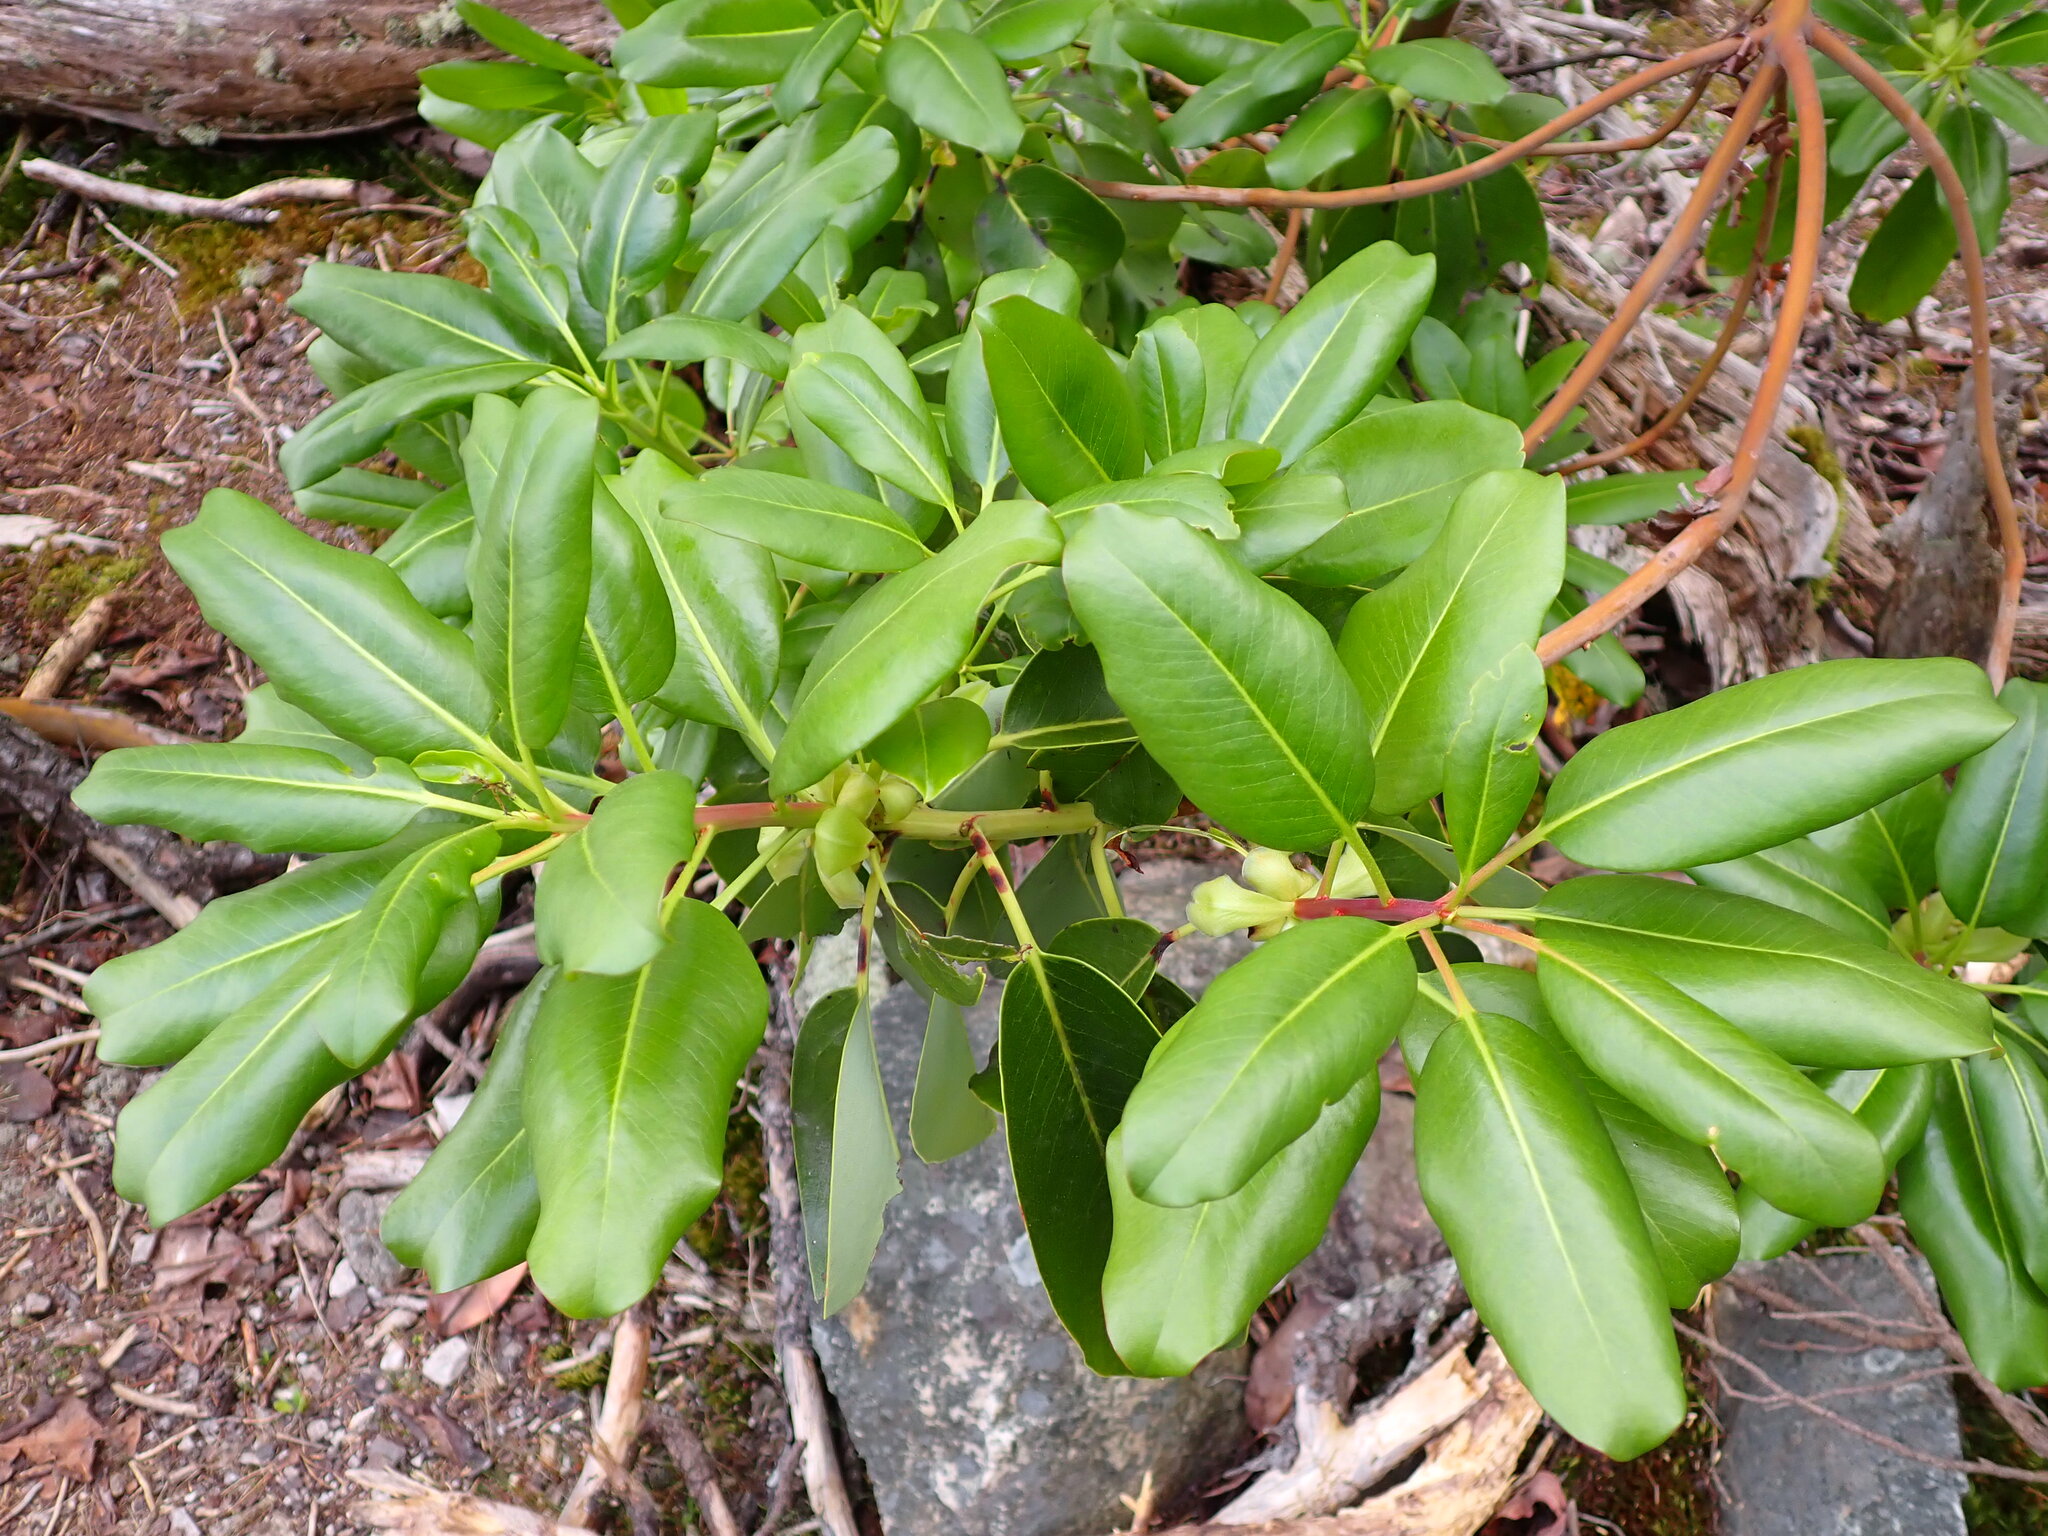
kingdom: Plantae
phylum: Tracheophyta
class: Magnoliopsida
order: Ericales
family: Ericaceae
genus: Arbutus
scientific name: Arbutus menziesii
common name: Pacific madrone
